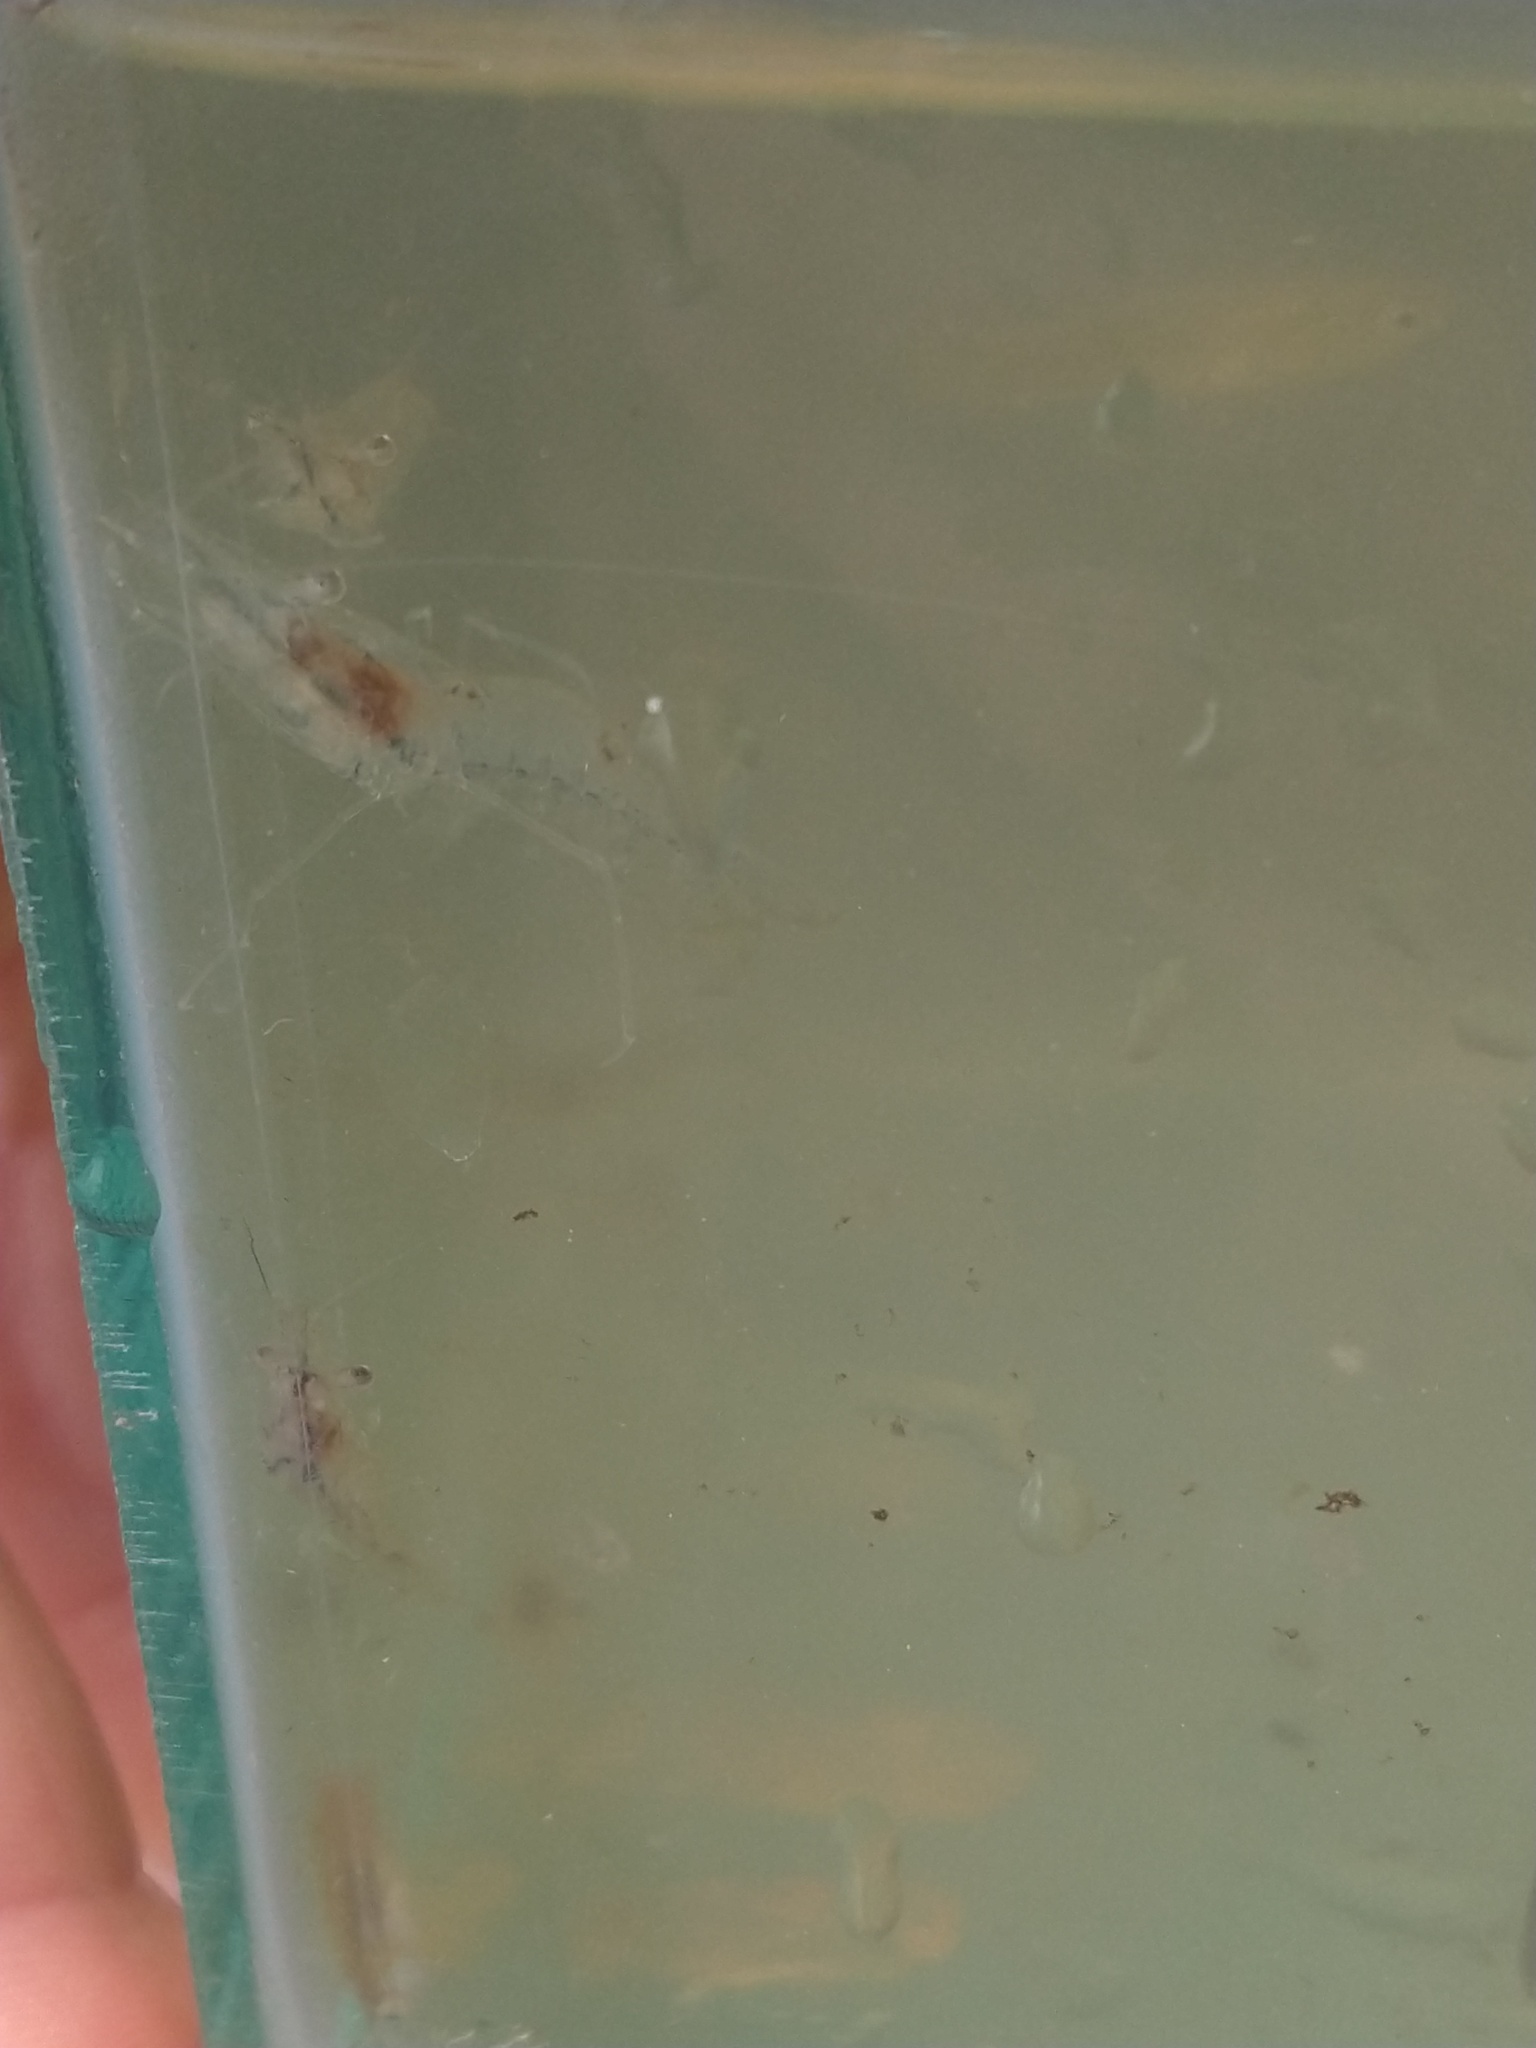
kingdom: Animalia
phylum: Arthropoda
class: Malacostraca
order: Decapoda
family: Palaemonidae
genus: Palaemon
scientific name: Palaemon argentinus
